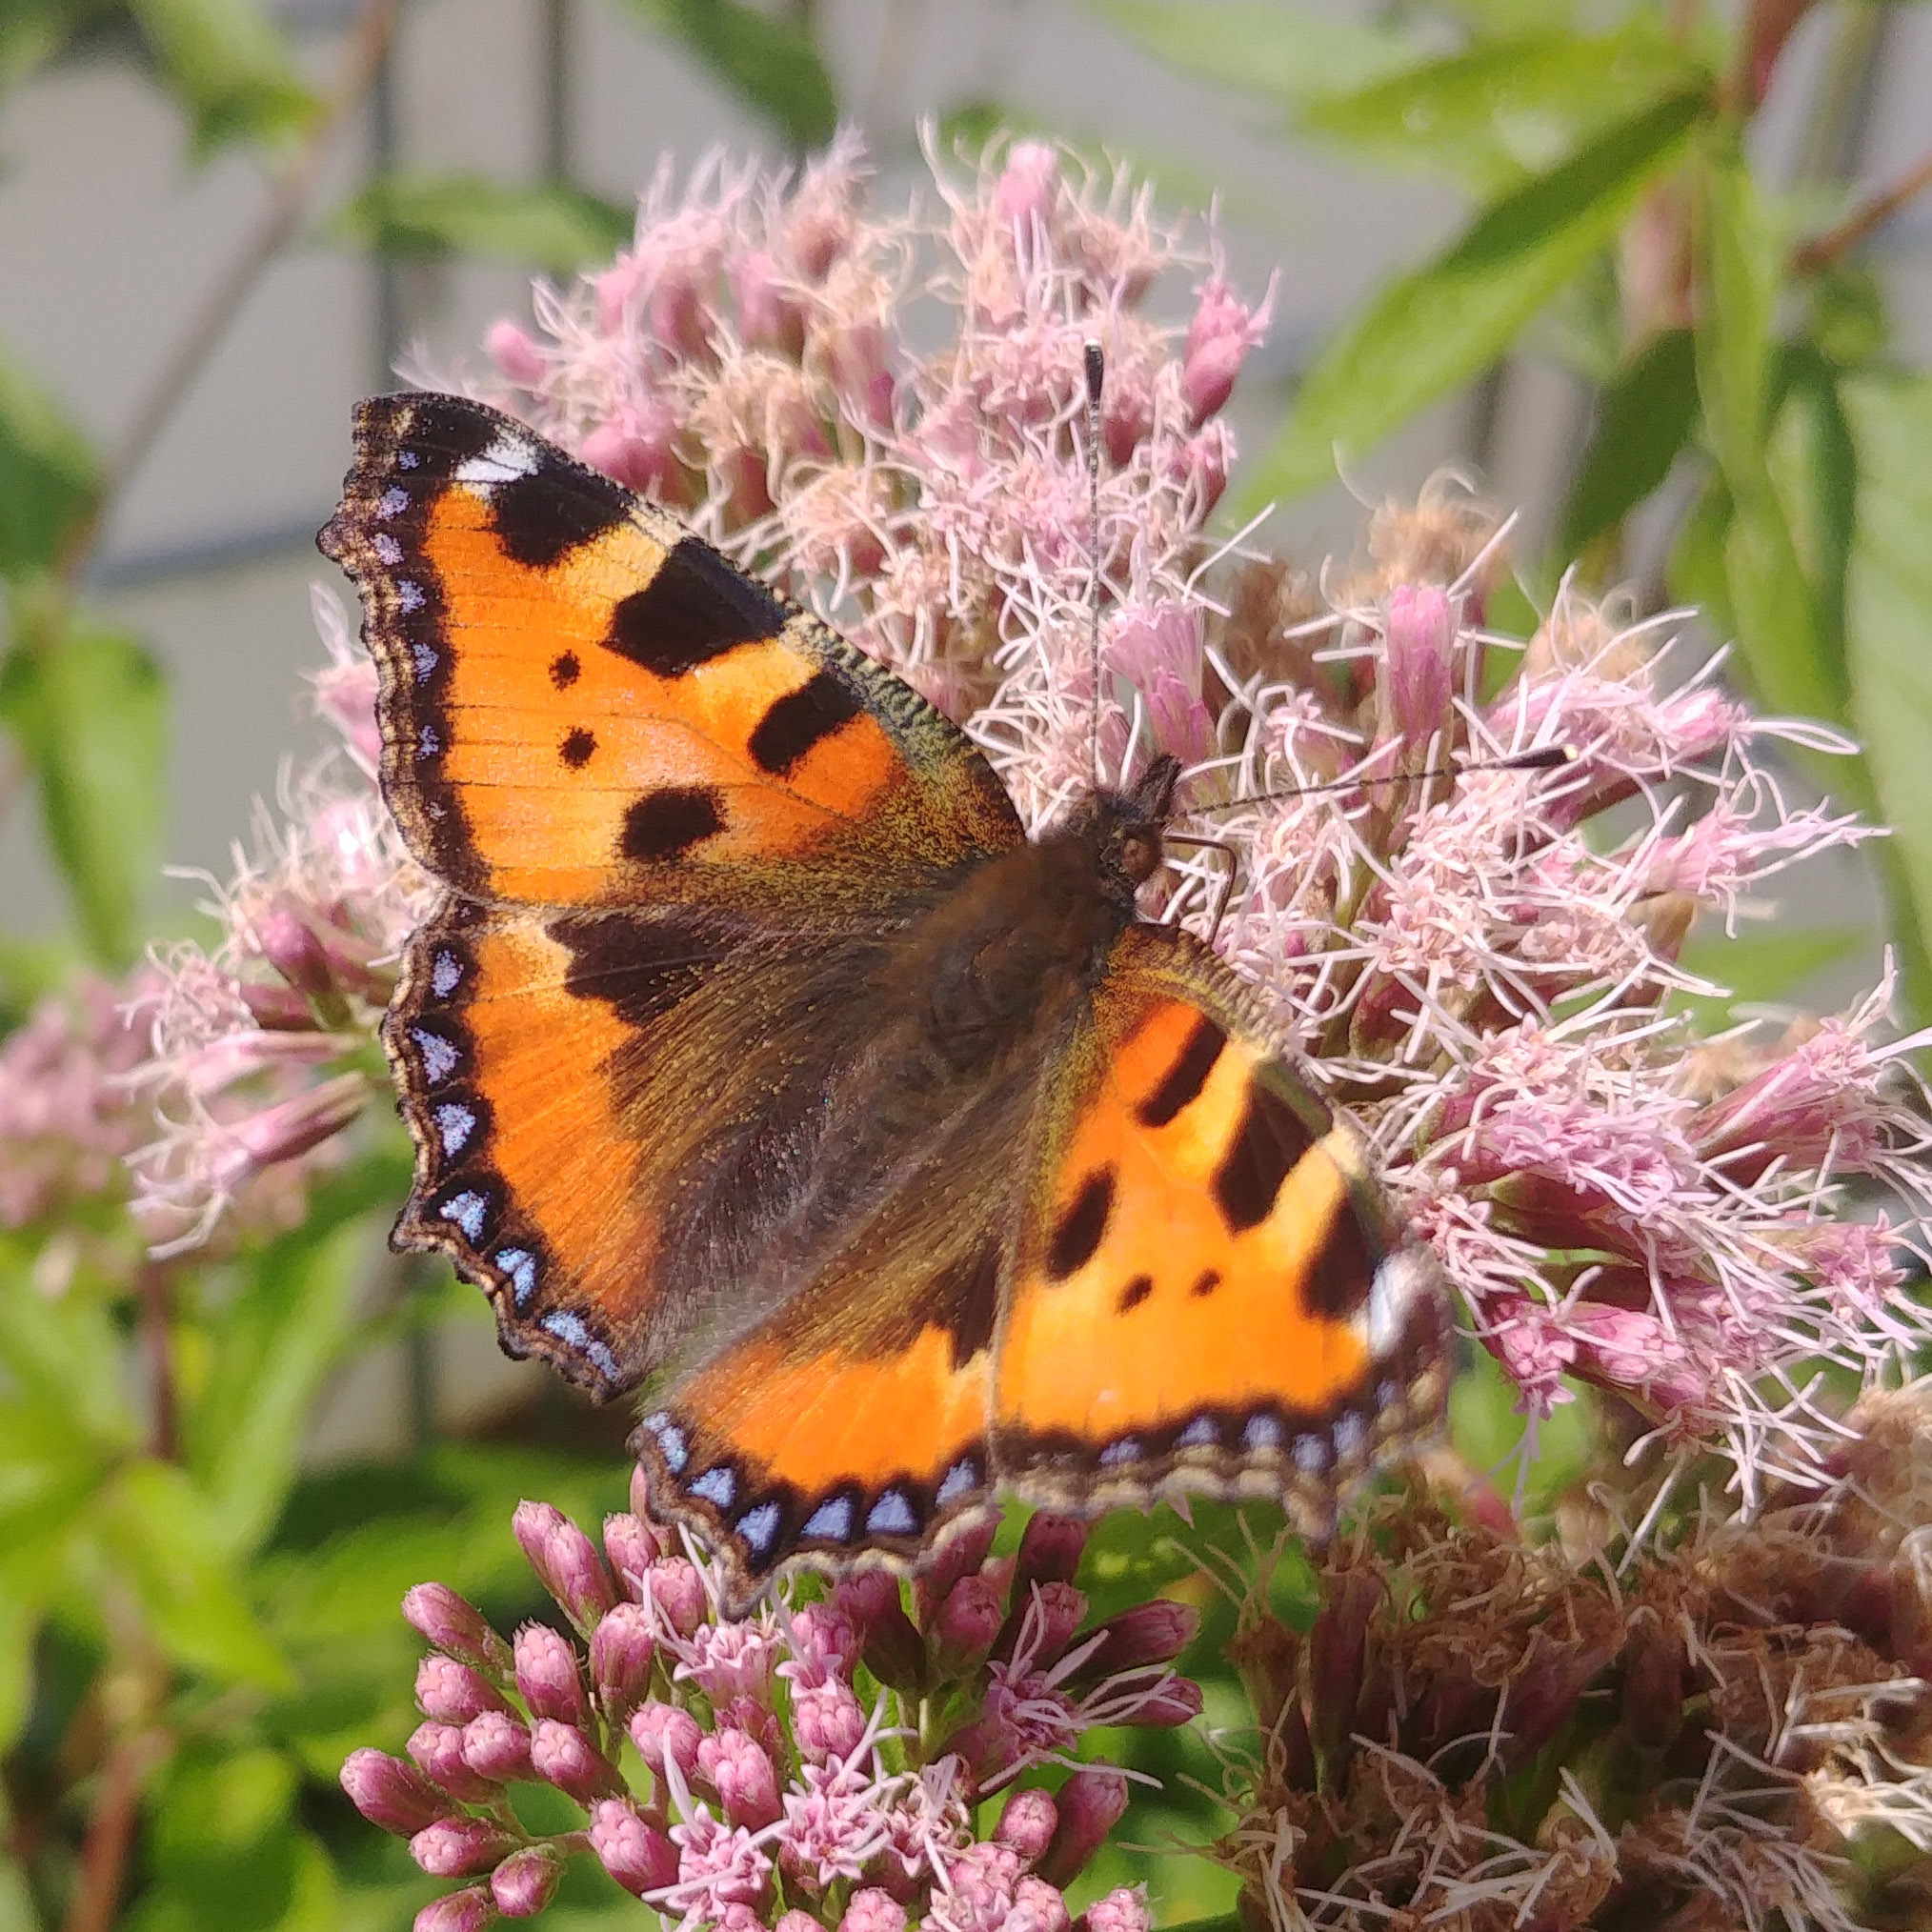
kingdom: Animalia
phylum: Arthropoda
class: Insecta
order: Lepidoptera
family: Nymphalidae
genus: Aglais
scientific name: Aglais urticae
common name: Small tortoiseshell
